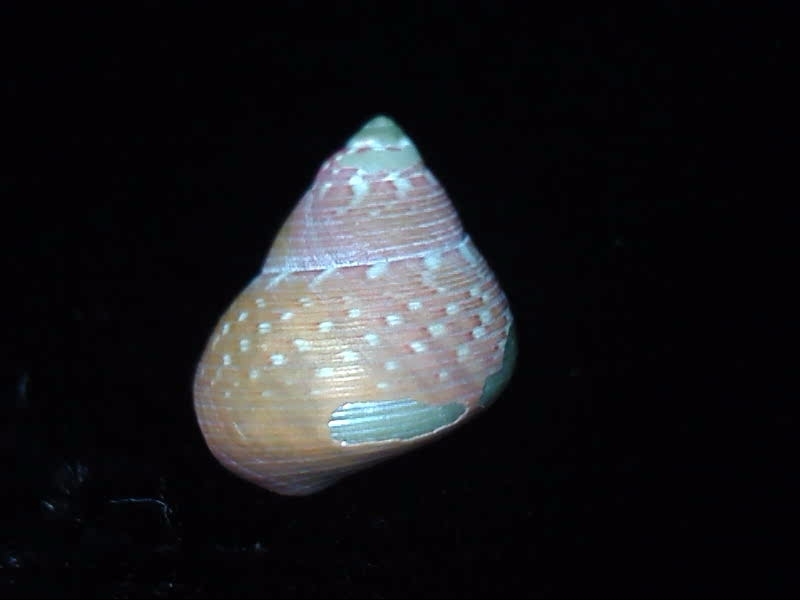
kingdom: Animalia
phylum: Mollusca
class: Gastropoda
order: Trochida
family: Trochidae
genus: Cantharidus
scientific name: Cantharidus dilatatus
